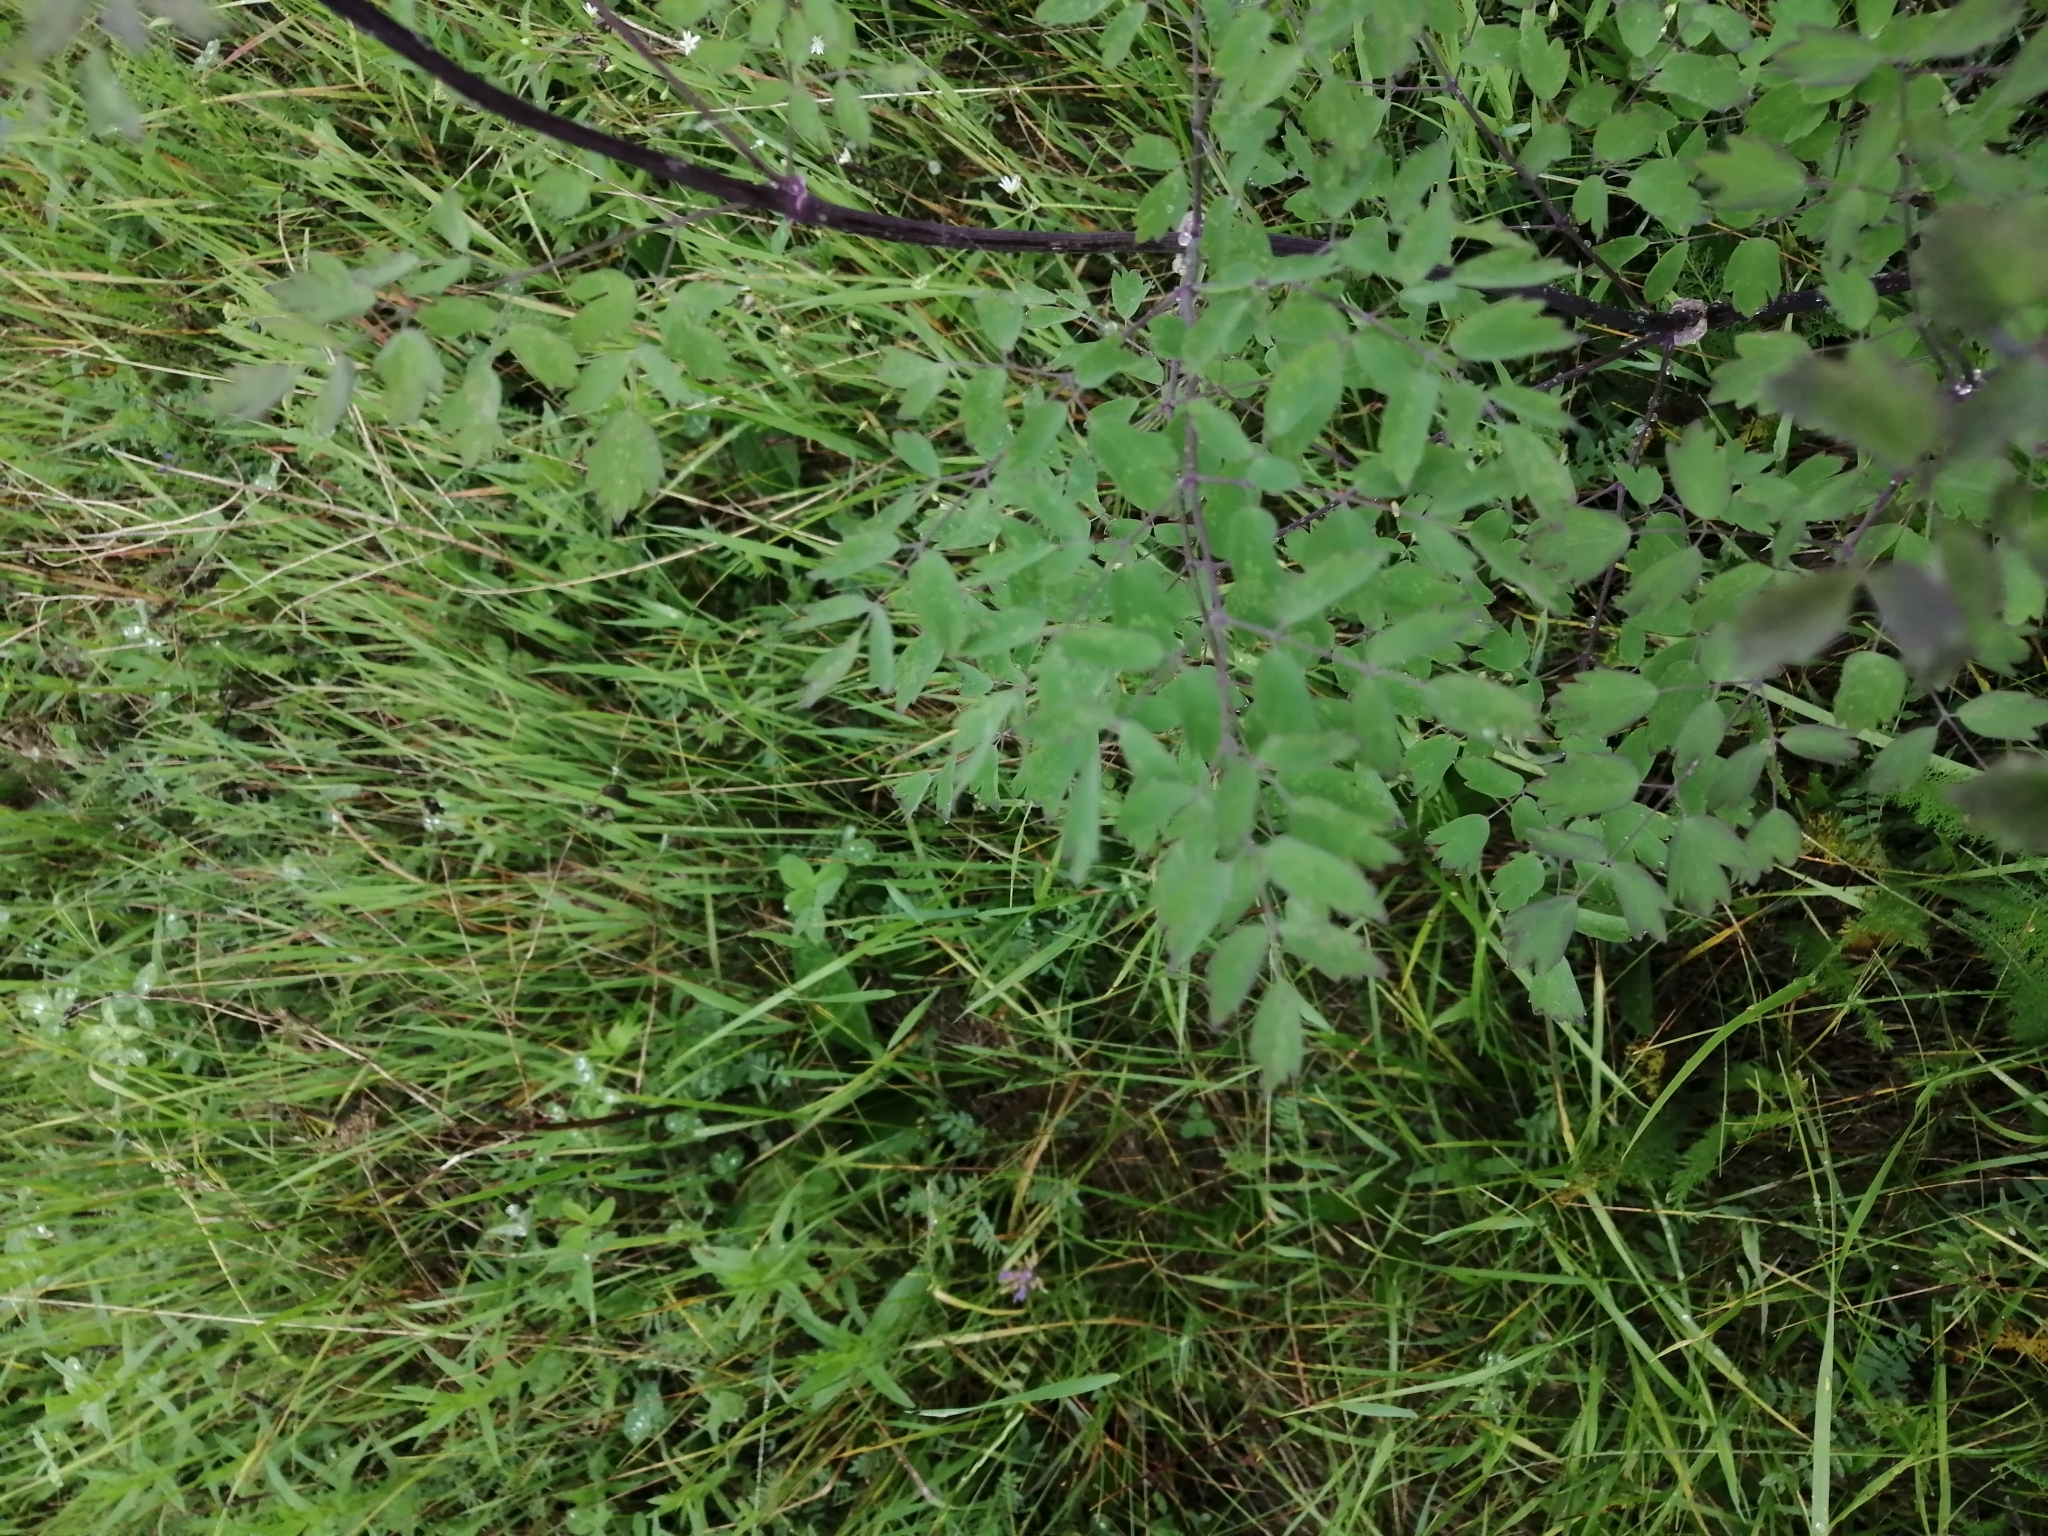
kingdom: Plantae
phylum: Tracheophyta
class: Magnoliopsida
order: Ranunculales
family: Ranunculaceae
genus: Thalictrum
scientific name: Thalictrum minus
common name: Lesser meadow-rue
